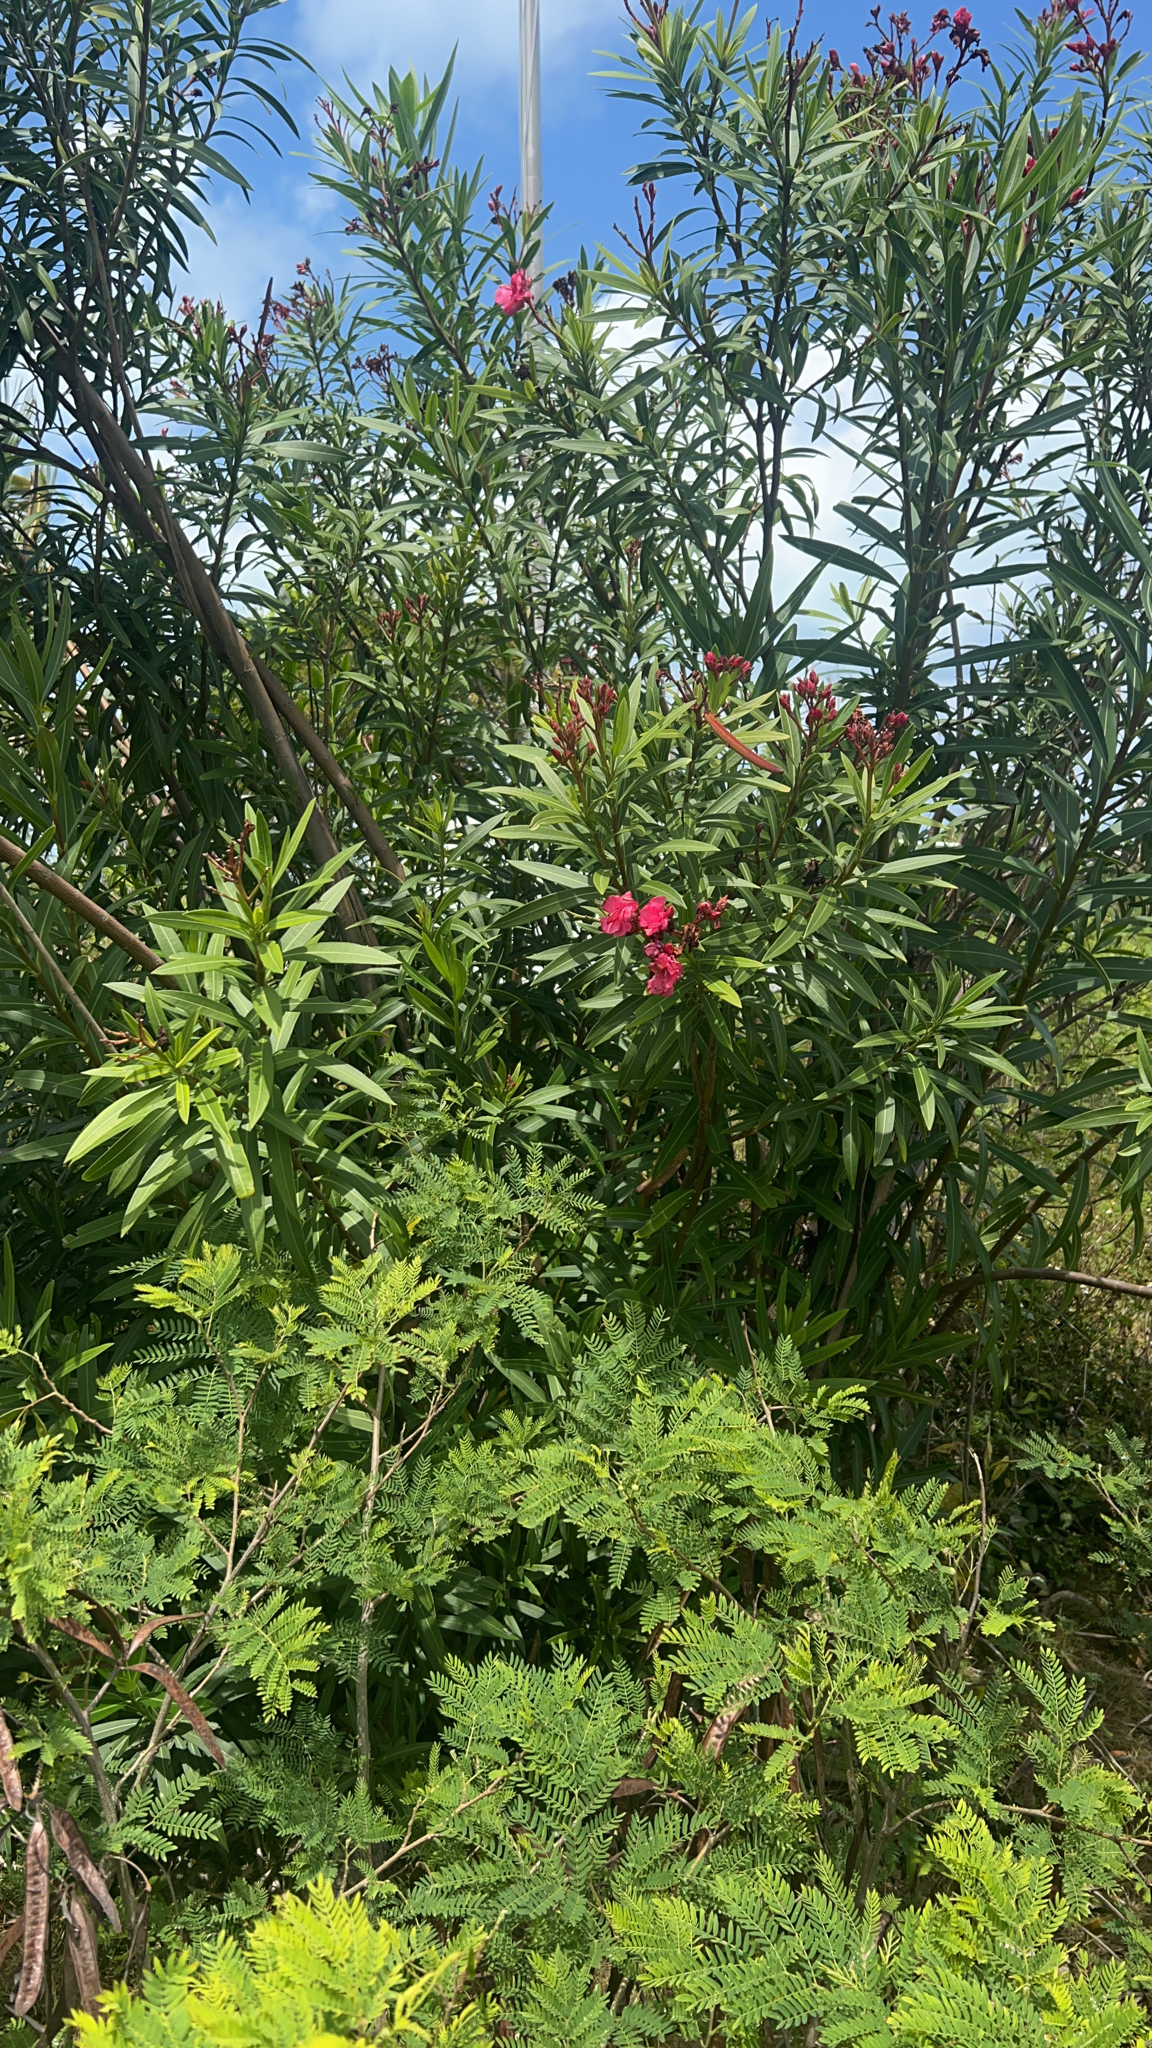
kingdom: Plantae
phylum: Tracheophyta
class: Magnoliopsida
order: Gentianales
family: Apocynaceae
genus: Nerium
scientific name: Nerium oleander
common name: Oleander
